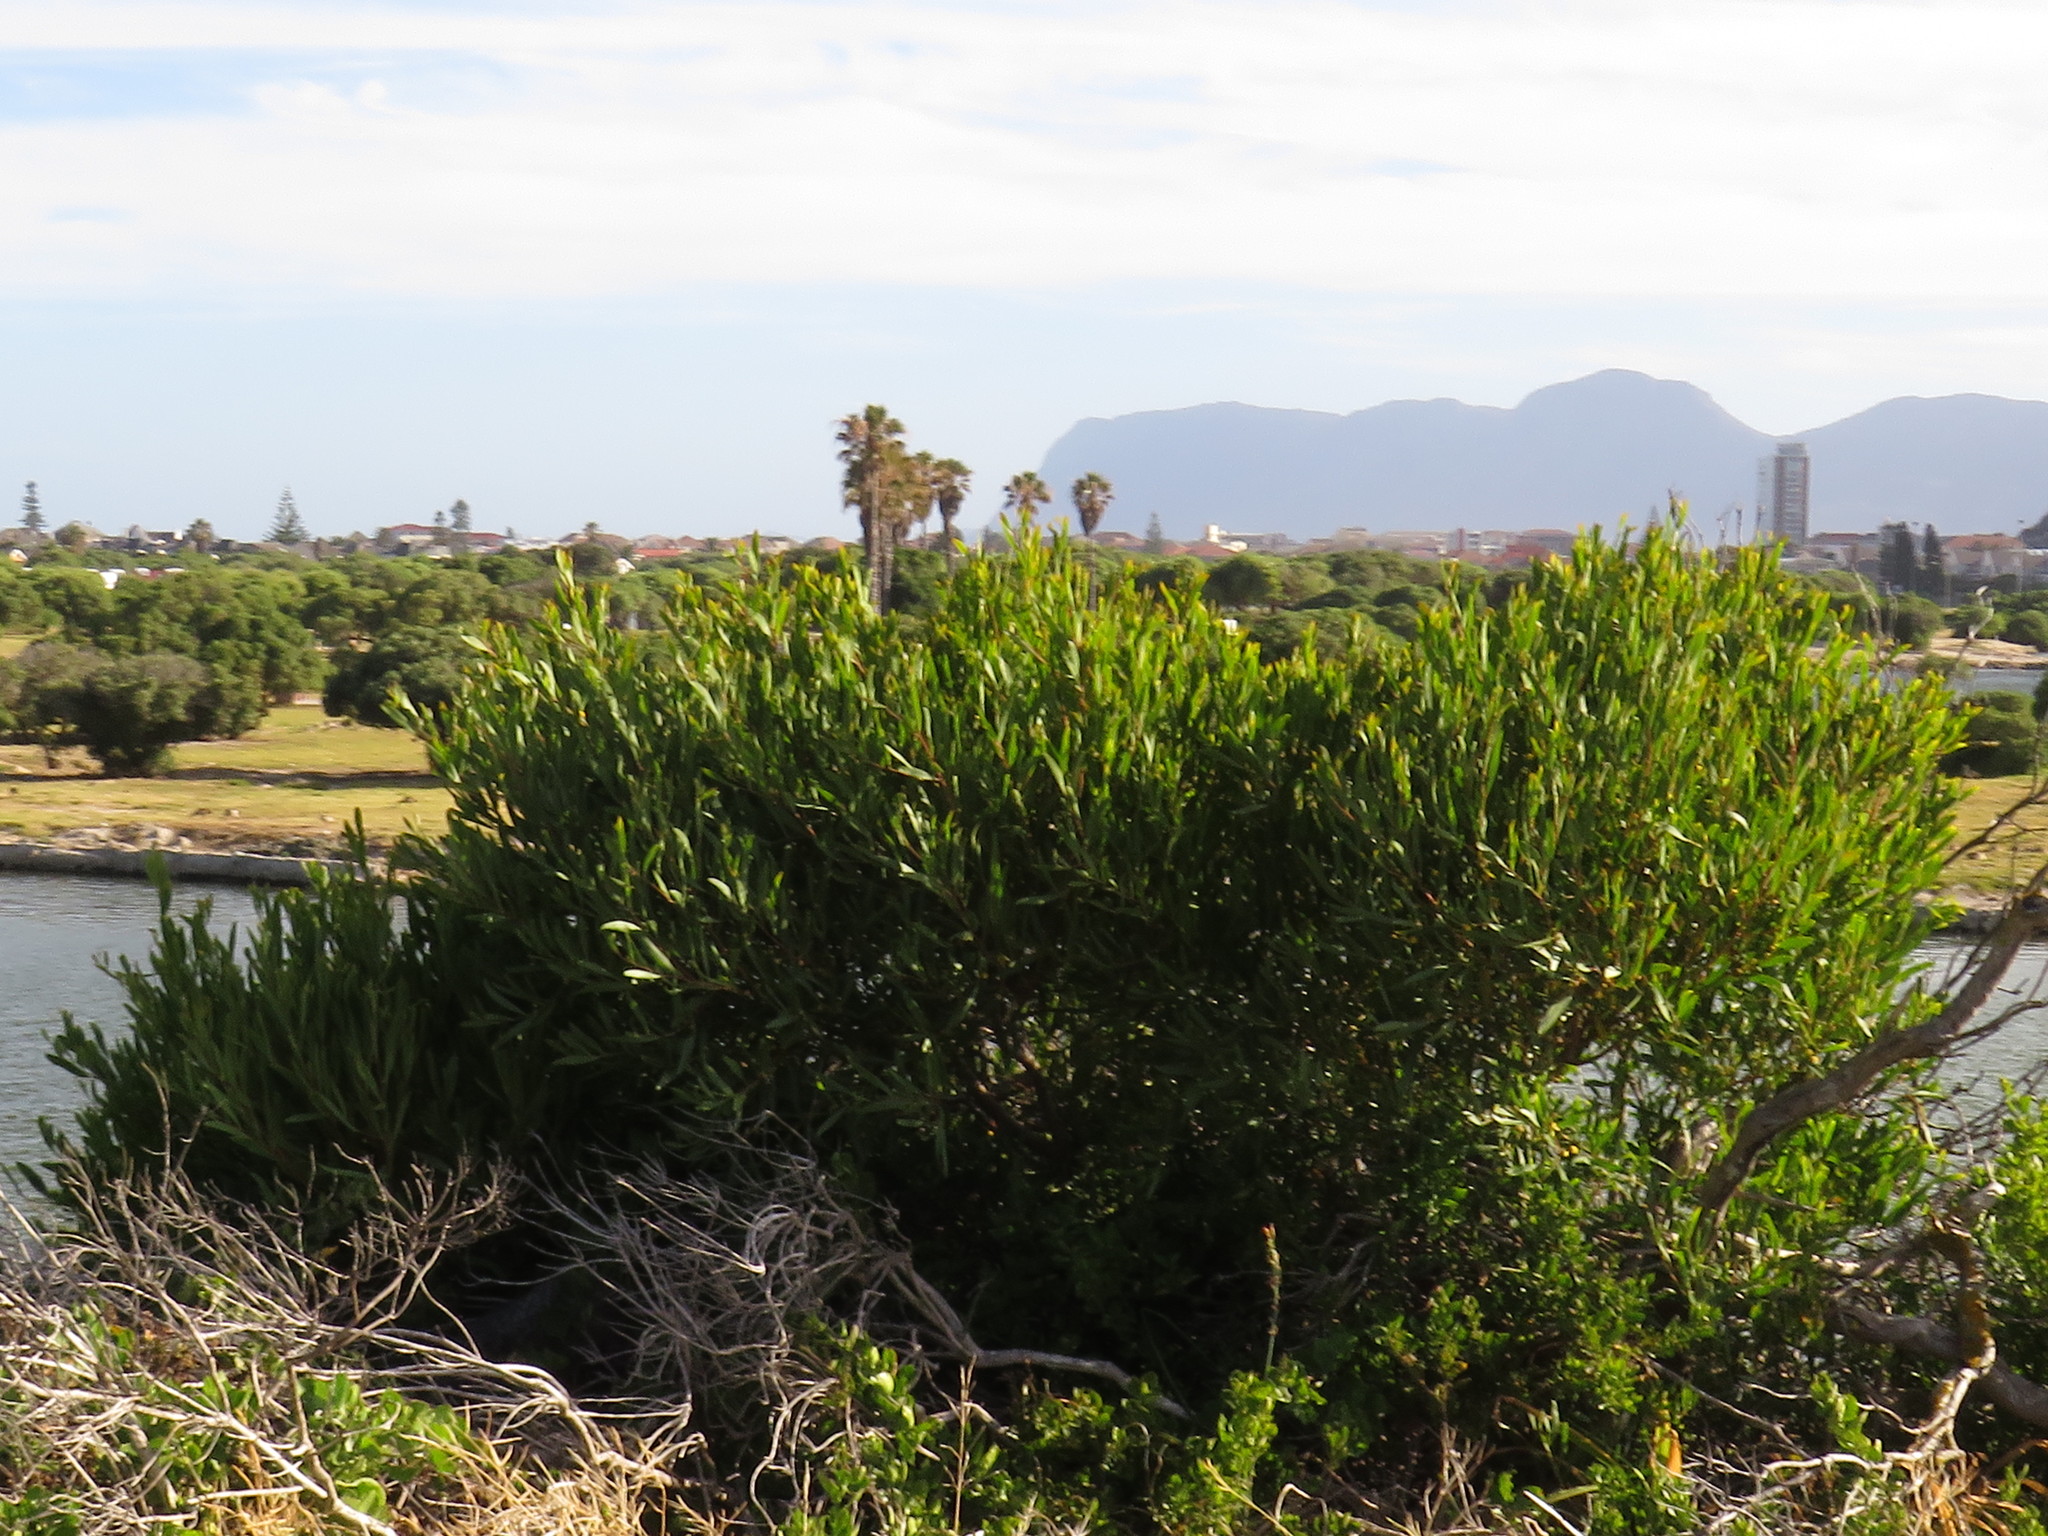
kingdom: Plantae
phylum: Tracheophyta
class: Magnoliopsida
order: Fabales
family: Fabaceae
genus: Acacia
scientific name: Acacia cyclops
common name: Coastal wattle
